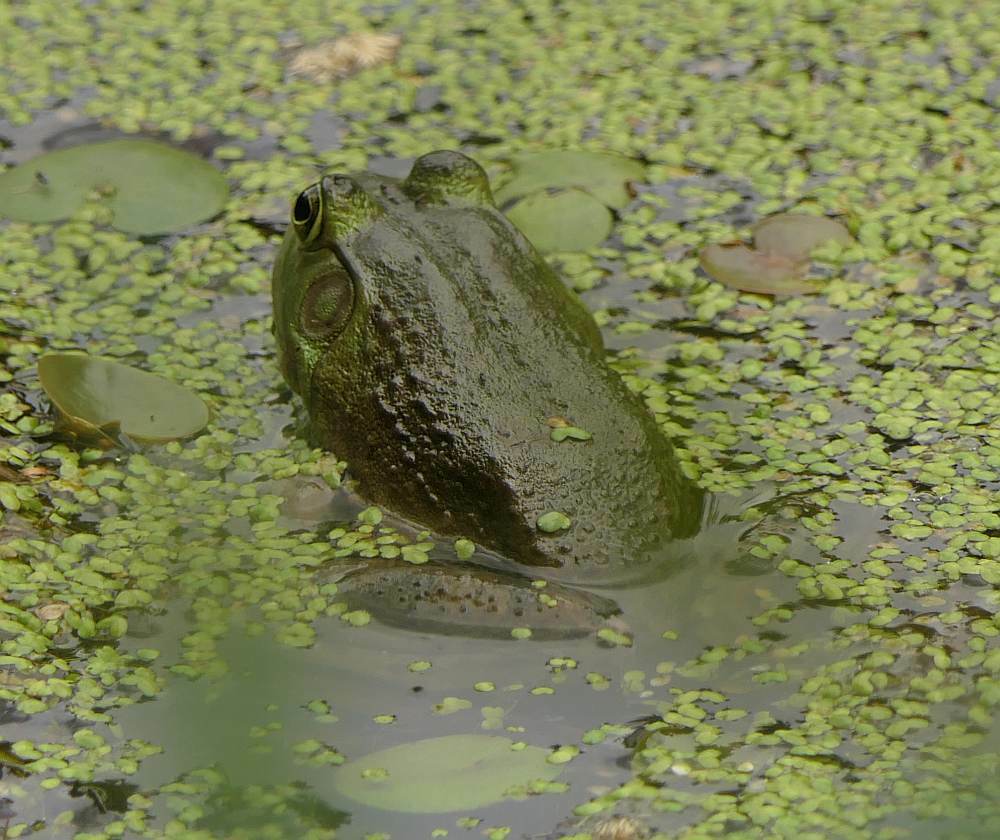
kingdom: Animalia
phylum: Chordata
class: Amphibia
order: Anura
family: Ranidae
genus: Lithobates
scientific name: Lithobates catesbeianus
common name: American bullfrog
